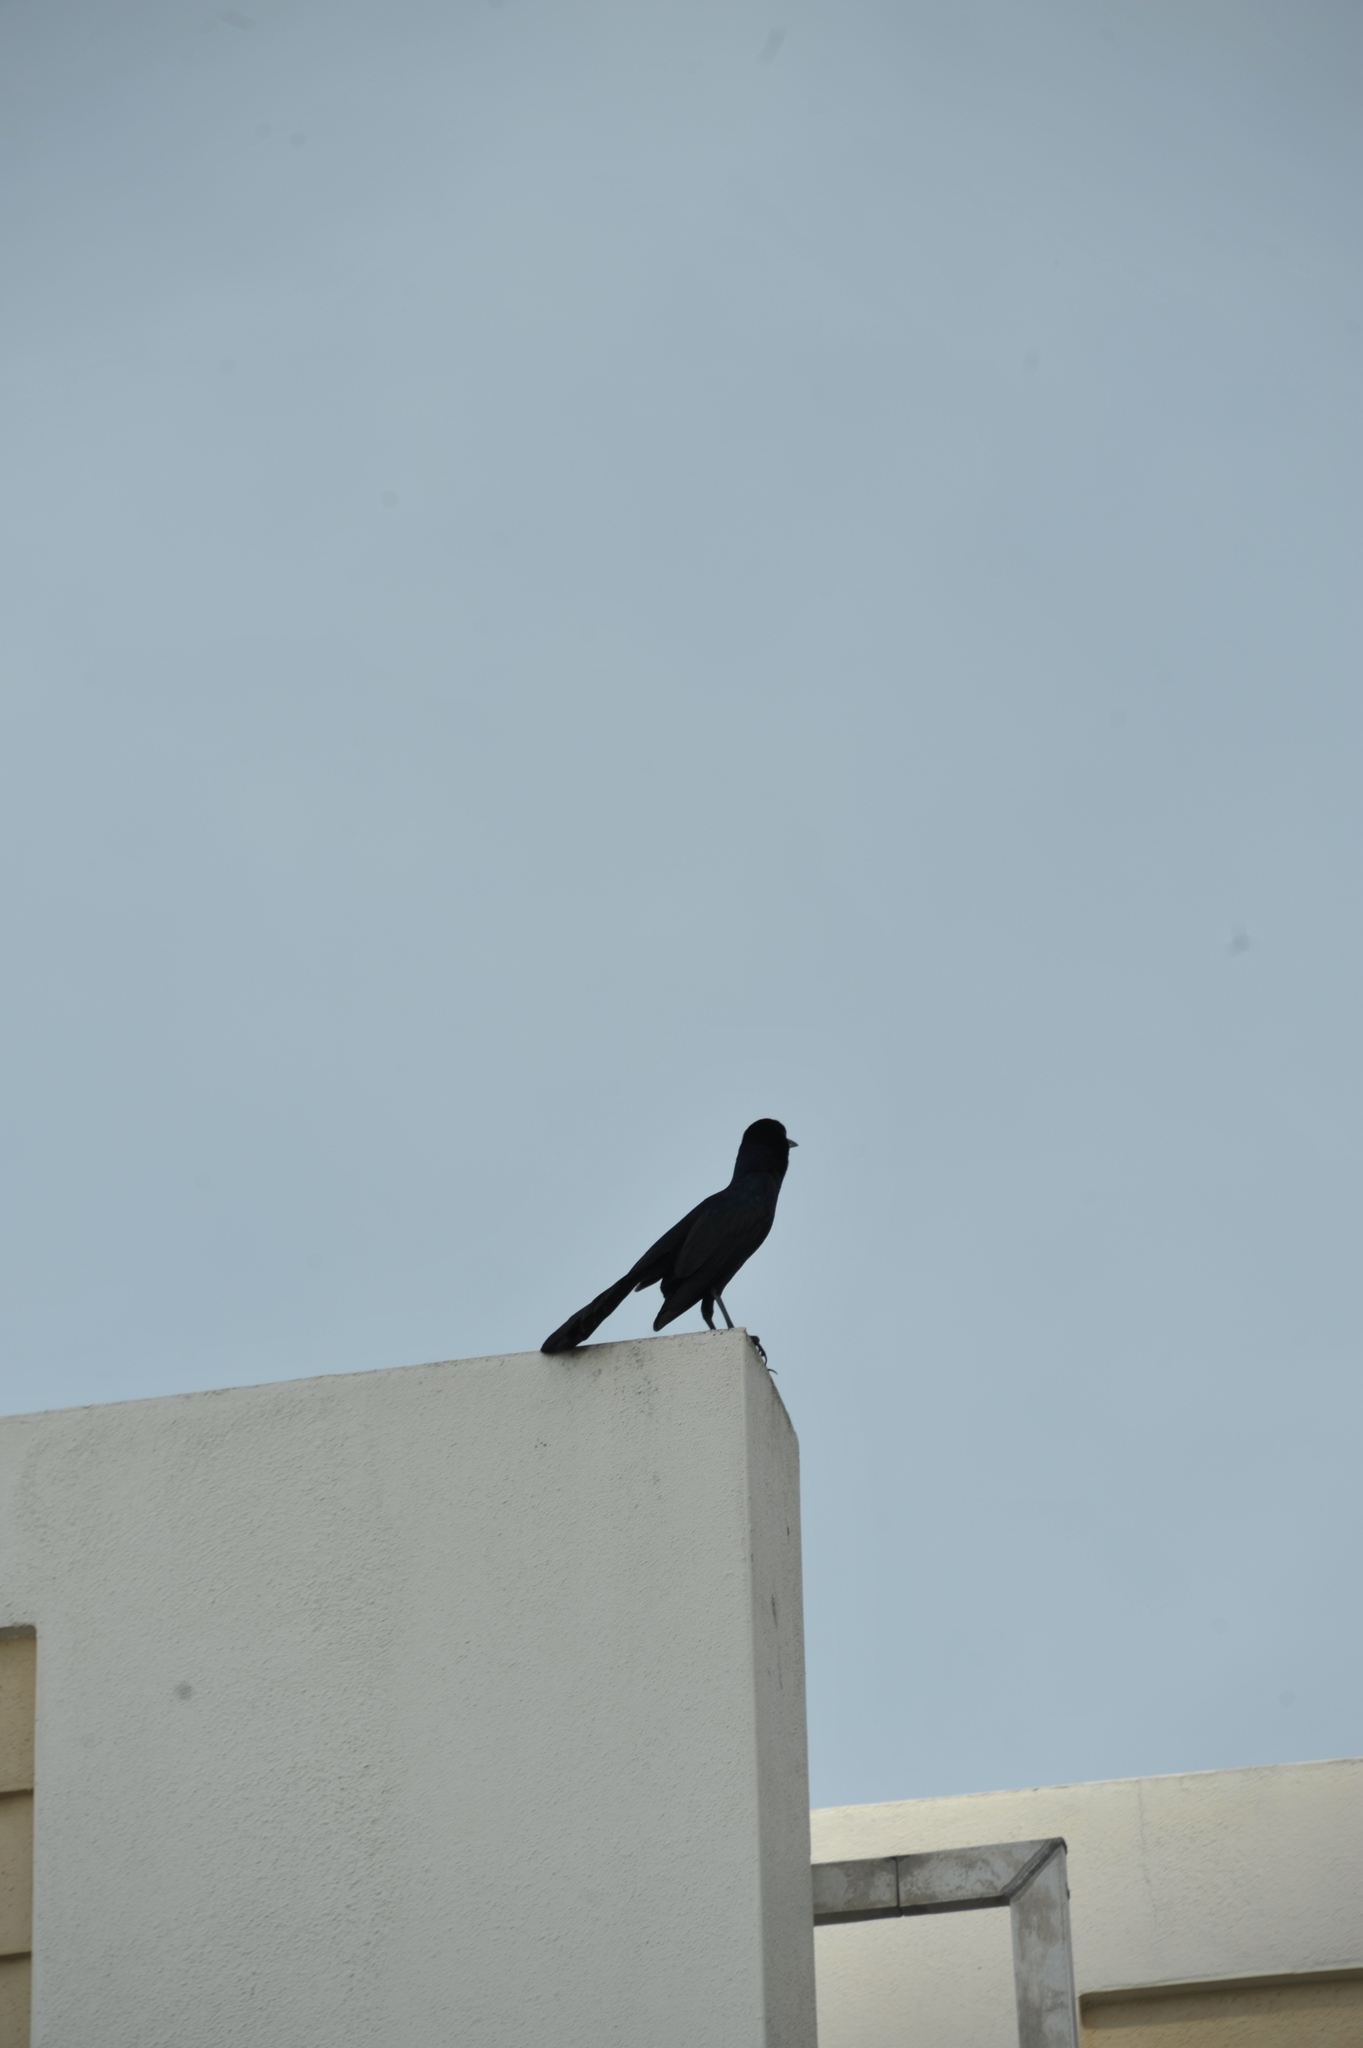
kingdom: Animalia
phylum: Chordata
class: Aves
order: Passeriformes
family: Icteridae
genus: Quiscalus
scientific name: Quiscalus major
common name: Boat-tailed grackle
